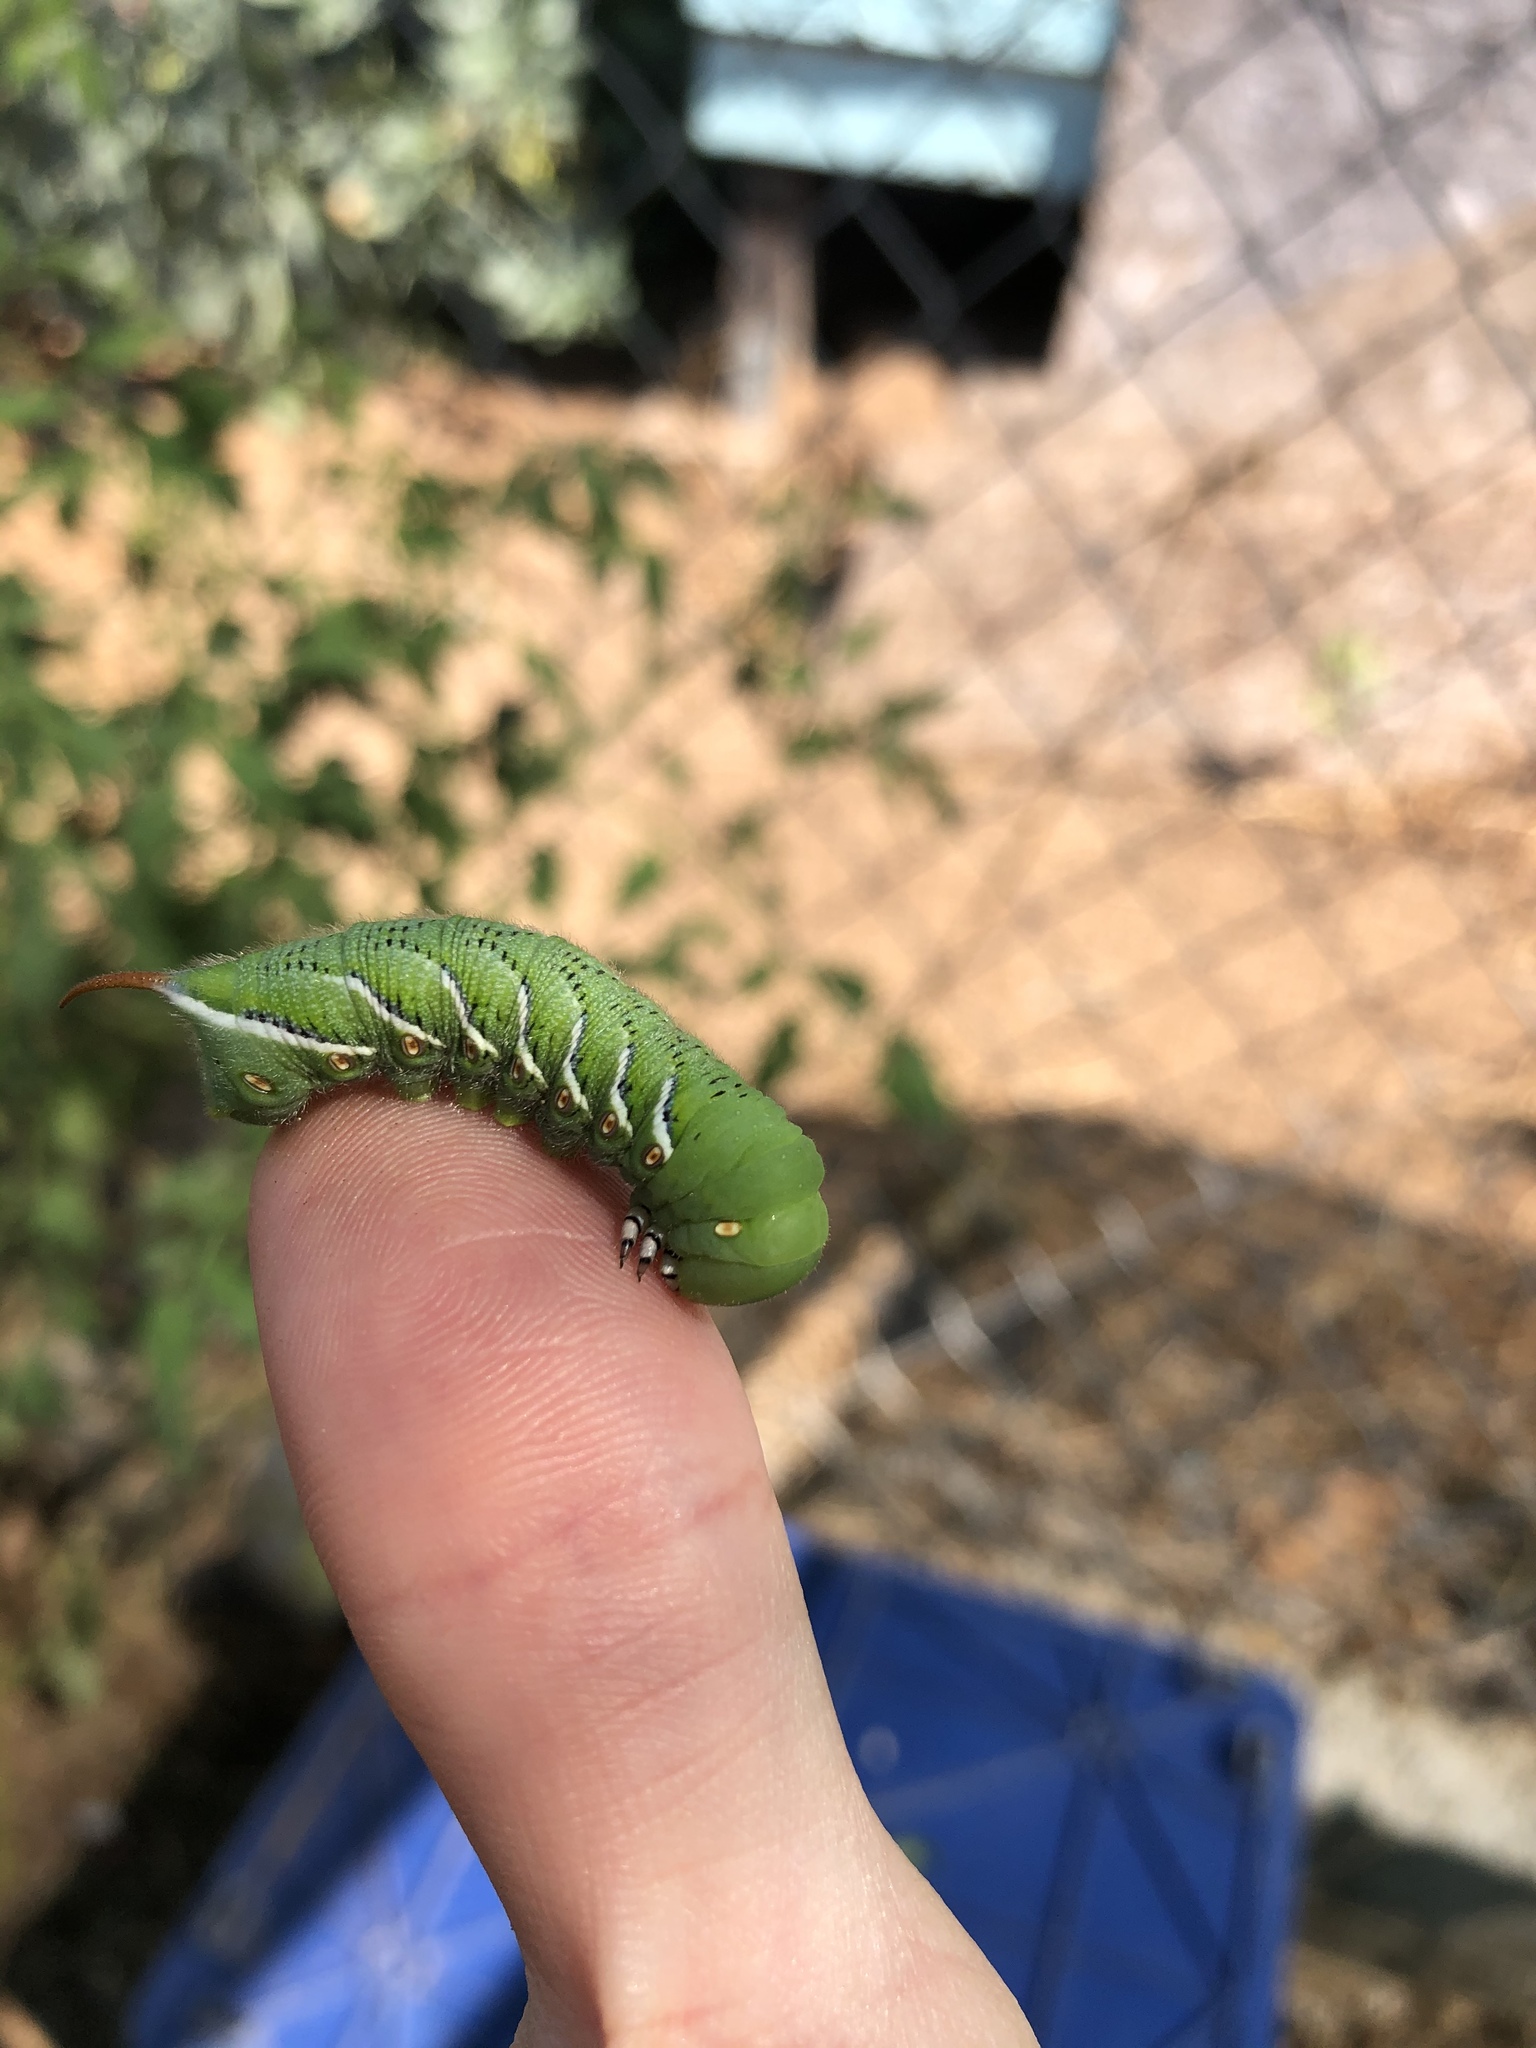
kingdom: Animalia
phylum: Arthropoda
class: Insecta
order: Lepidoptera
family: Sphingidae
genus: Manduca
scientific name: Manduca sexta
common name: Carolina sphinx
